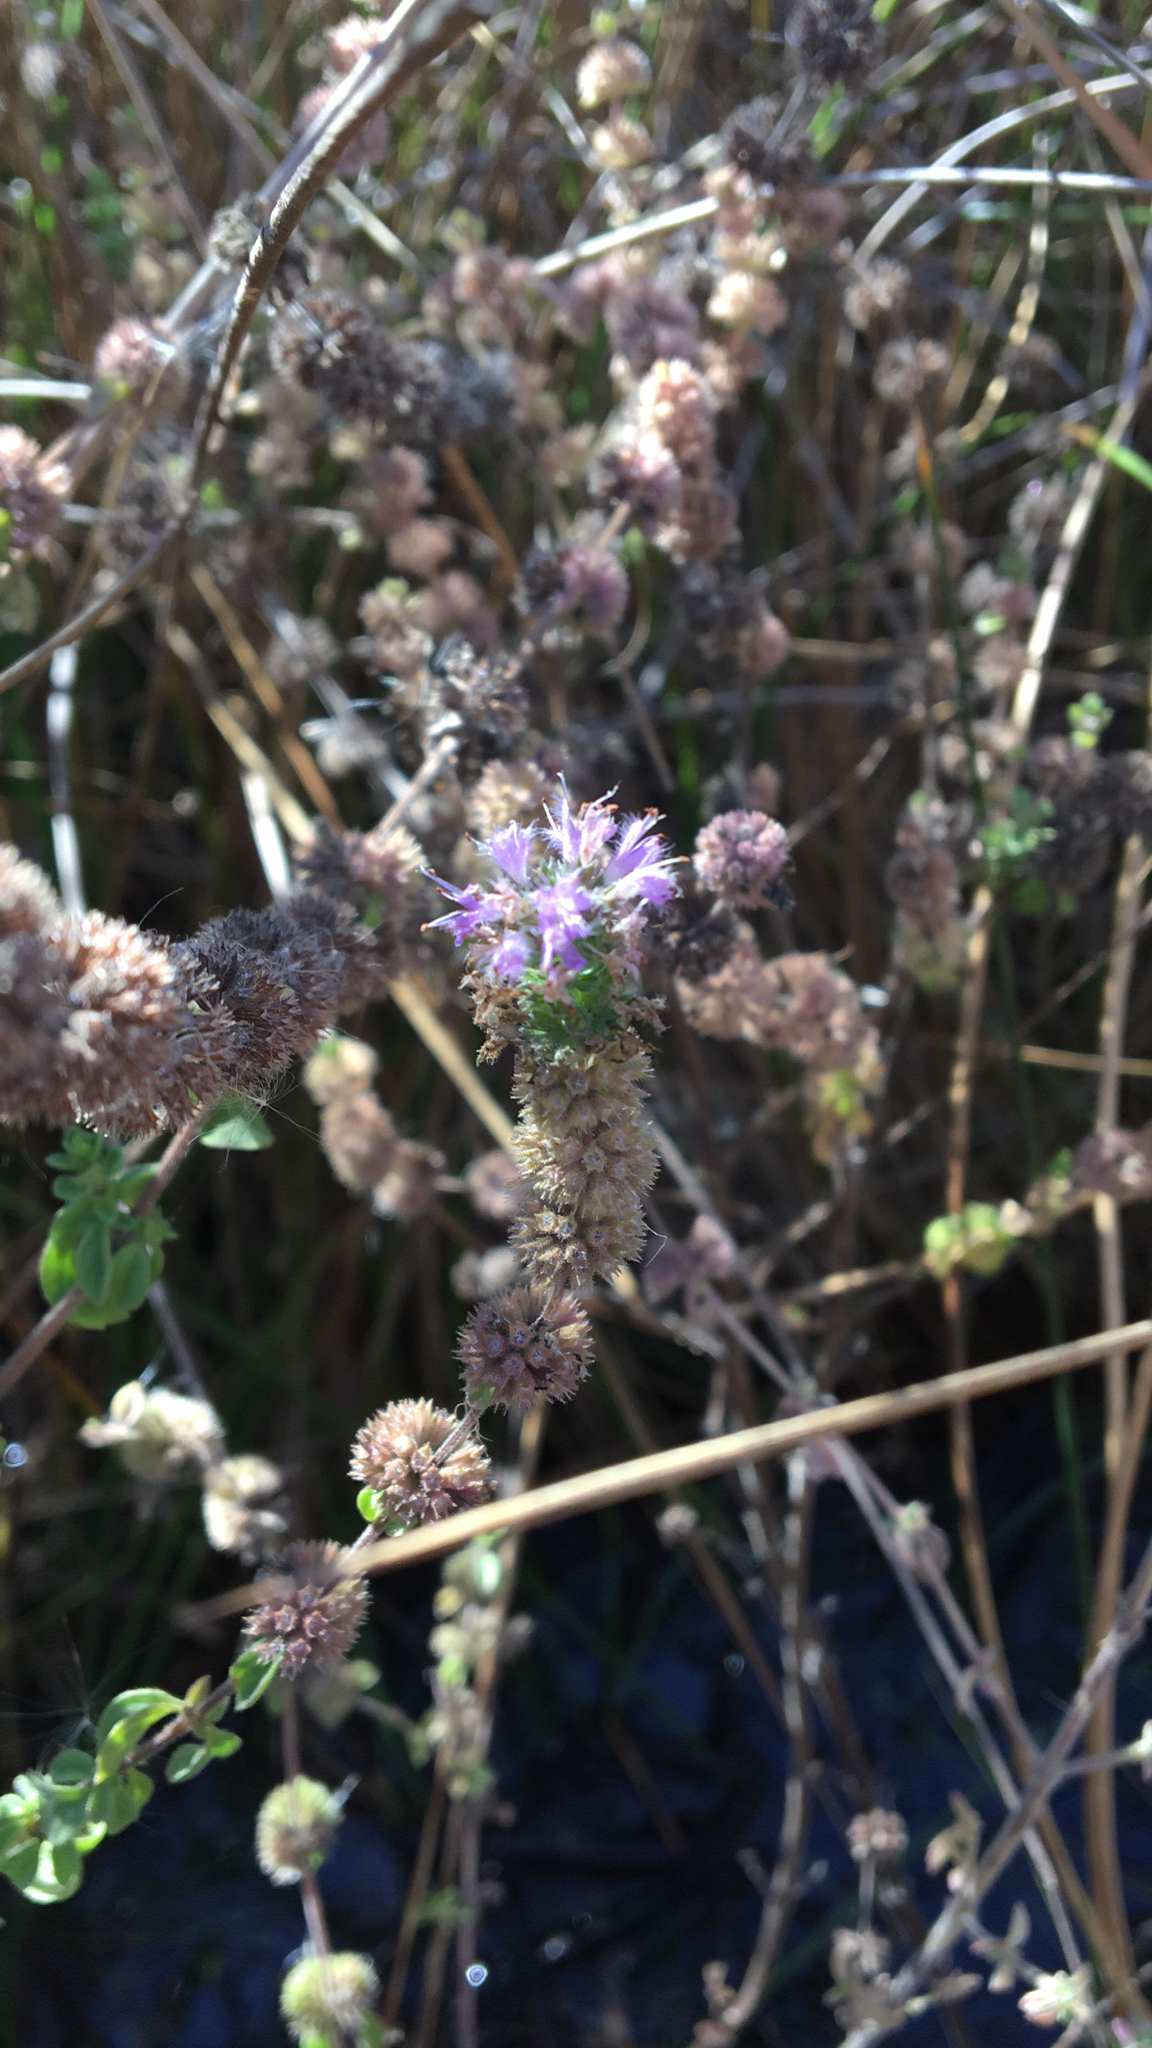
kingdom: Plantae
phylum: Tracheophyta
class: Magnoliopsida
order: Lamiales
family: Lamiaceae
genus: Mentha
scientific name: Mentha pulegium
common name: Pennyroyal
